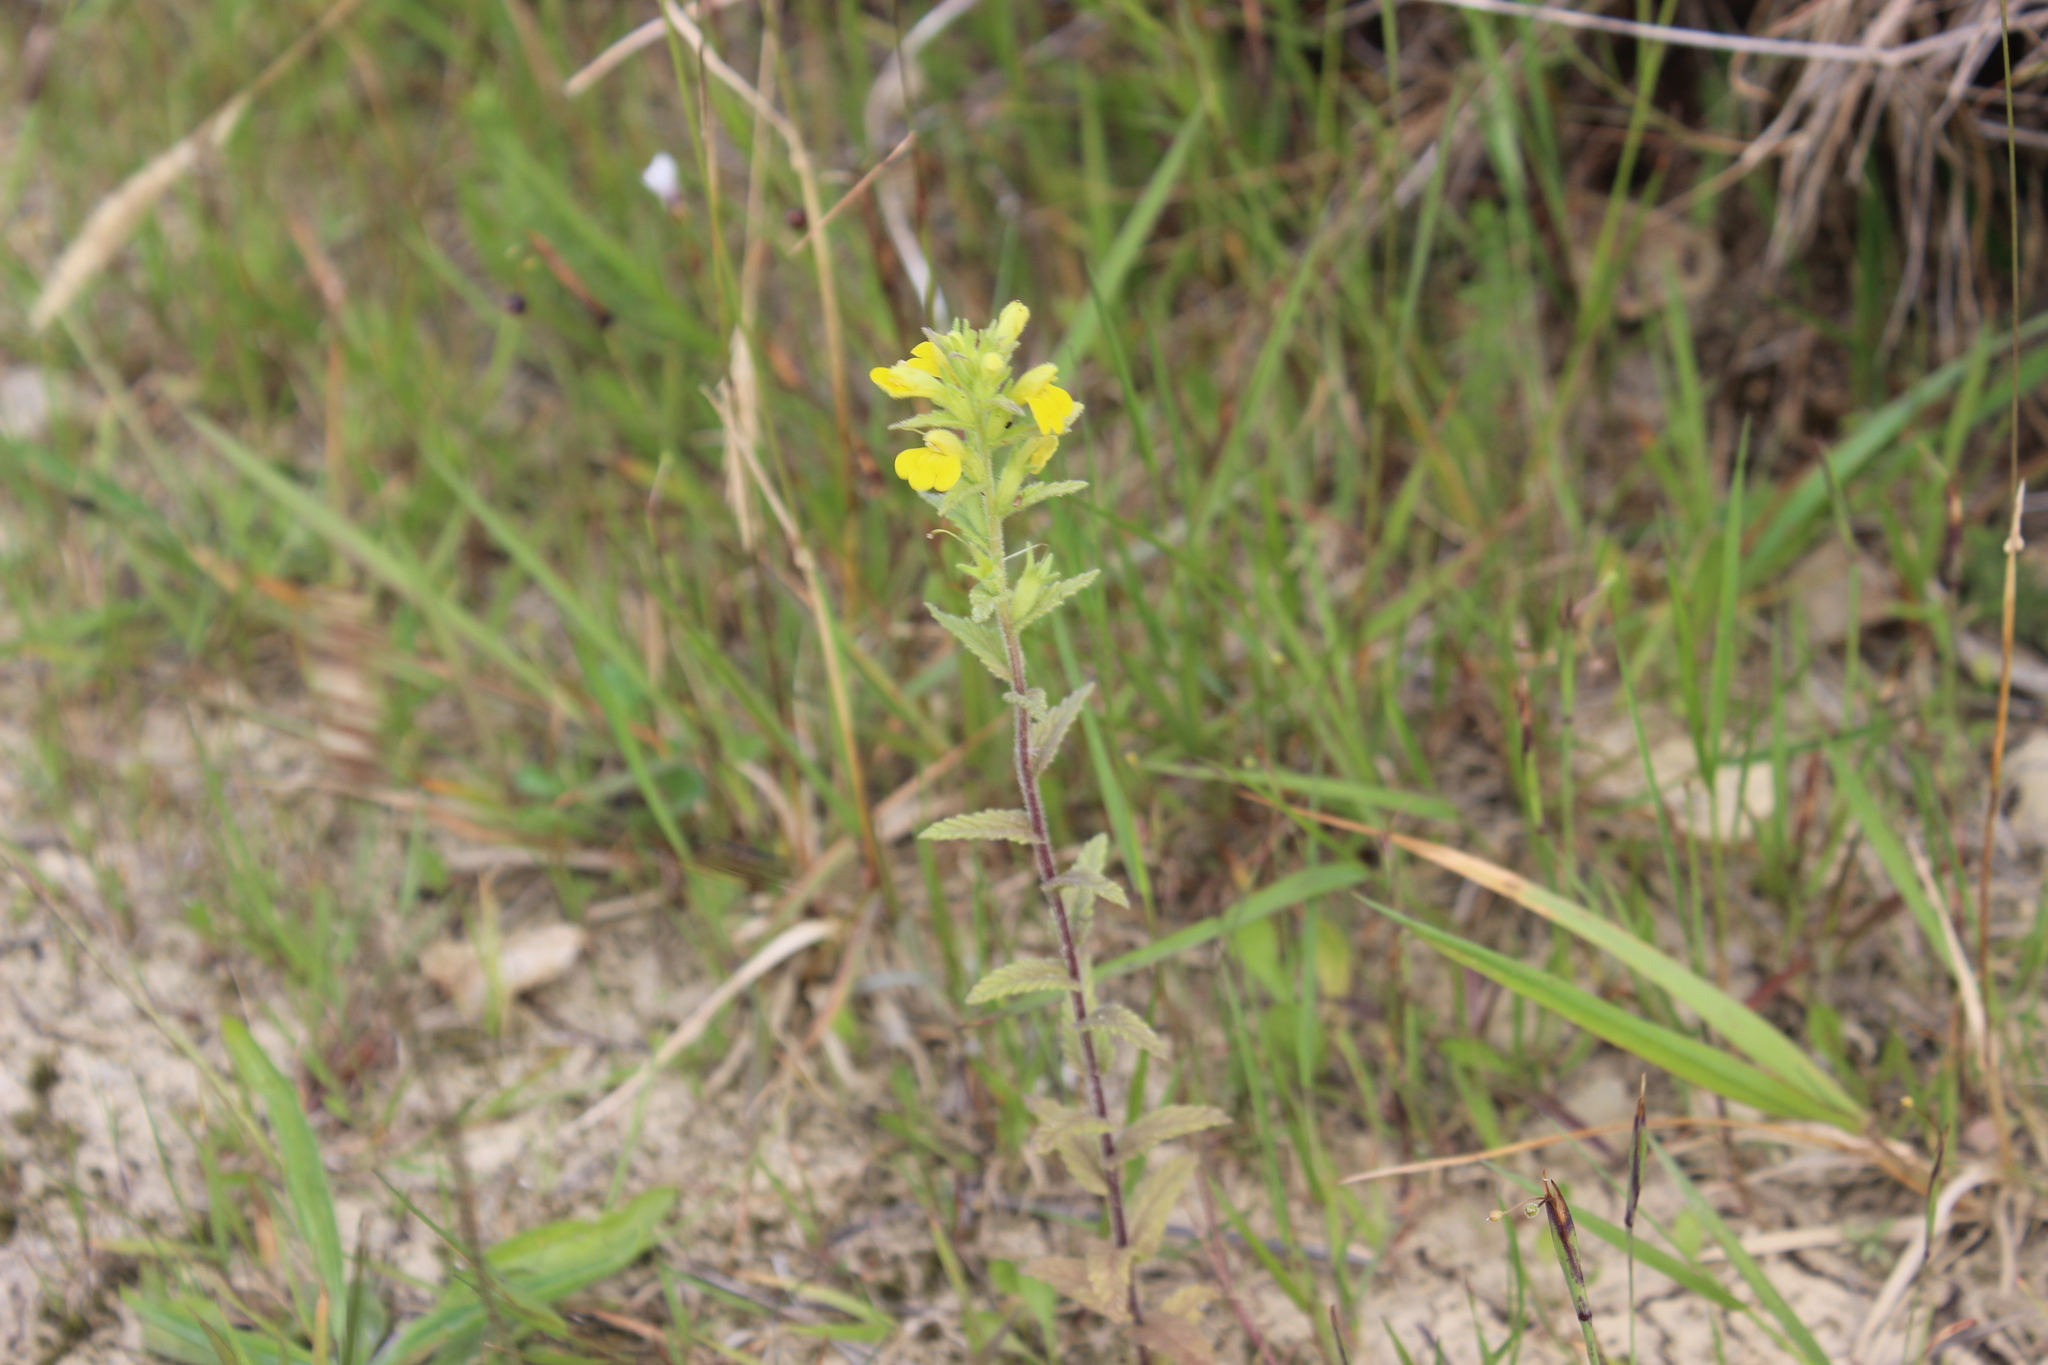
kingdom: Plantae
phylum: Tracheophyta
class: Magnoliopsida
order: Lamiales
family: Orobanchaceae
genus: Bellardia
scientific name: Bellardia viscosa
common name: Sticky parentucellia
